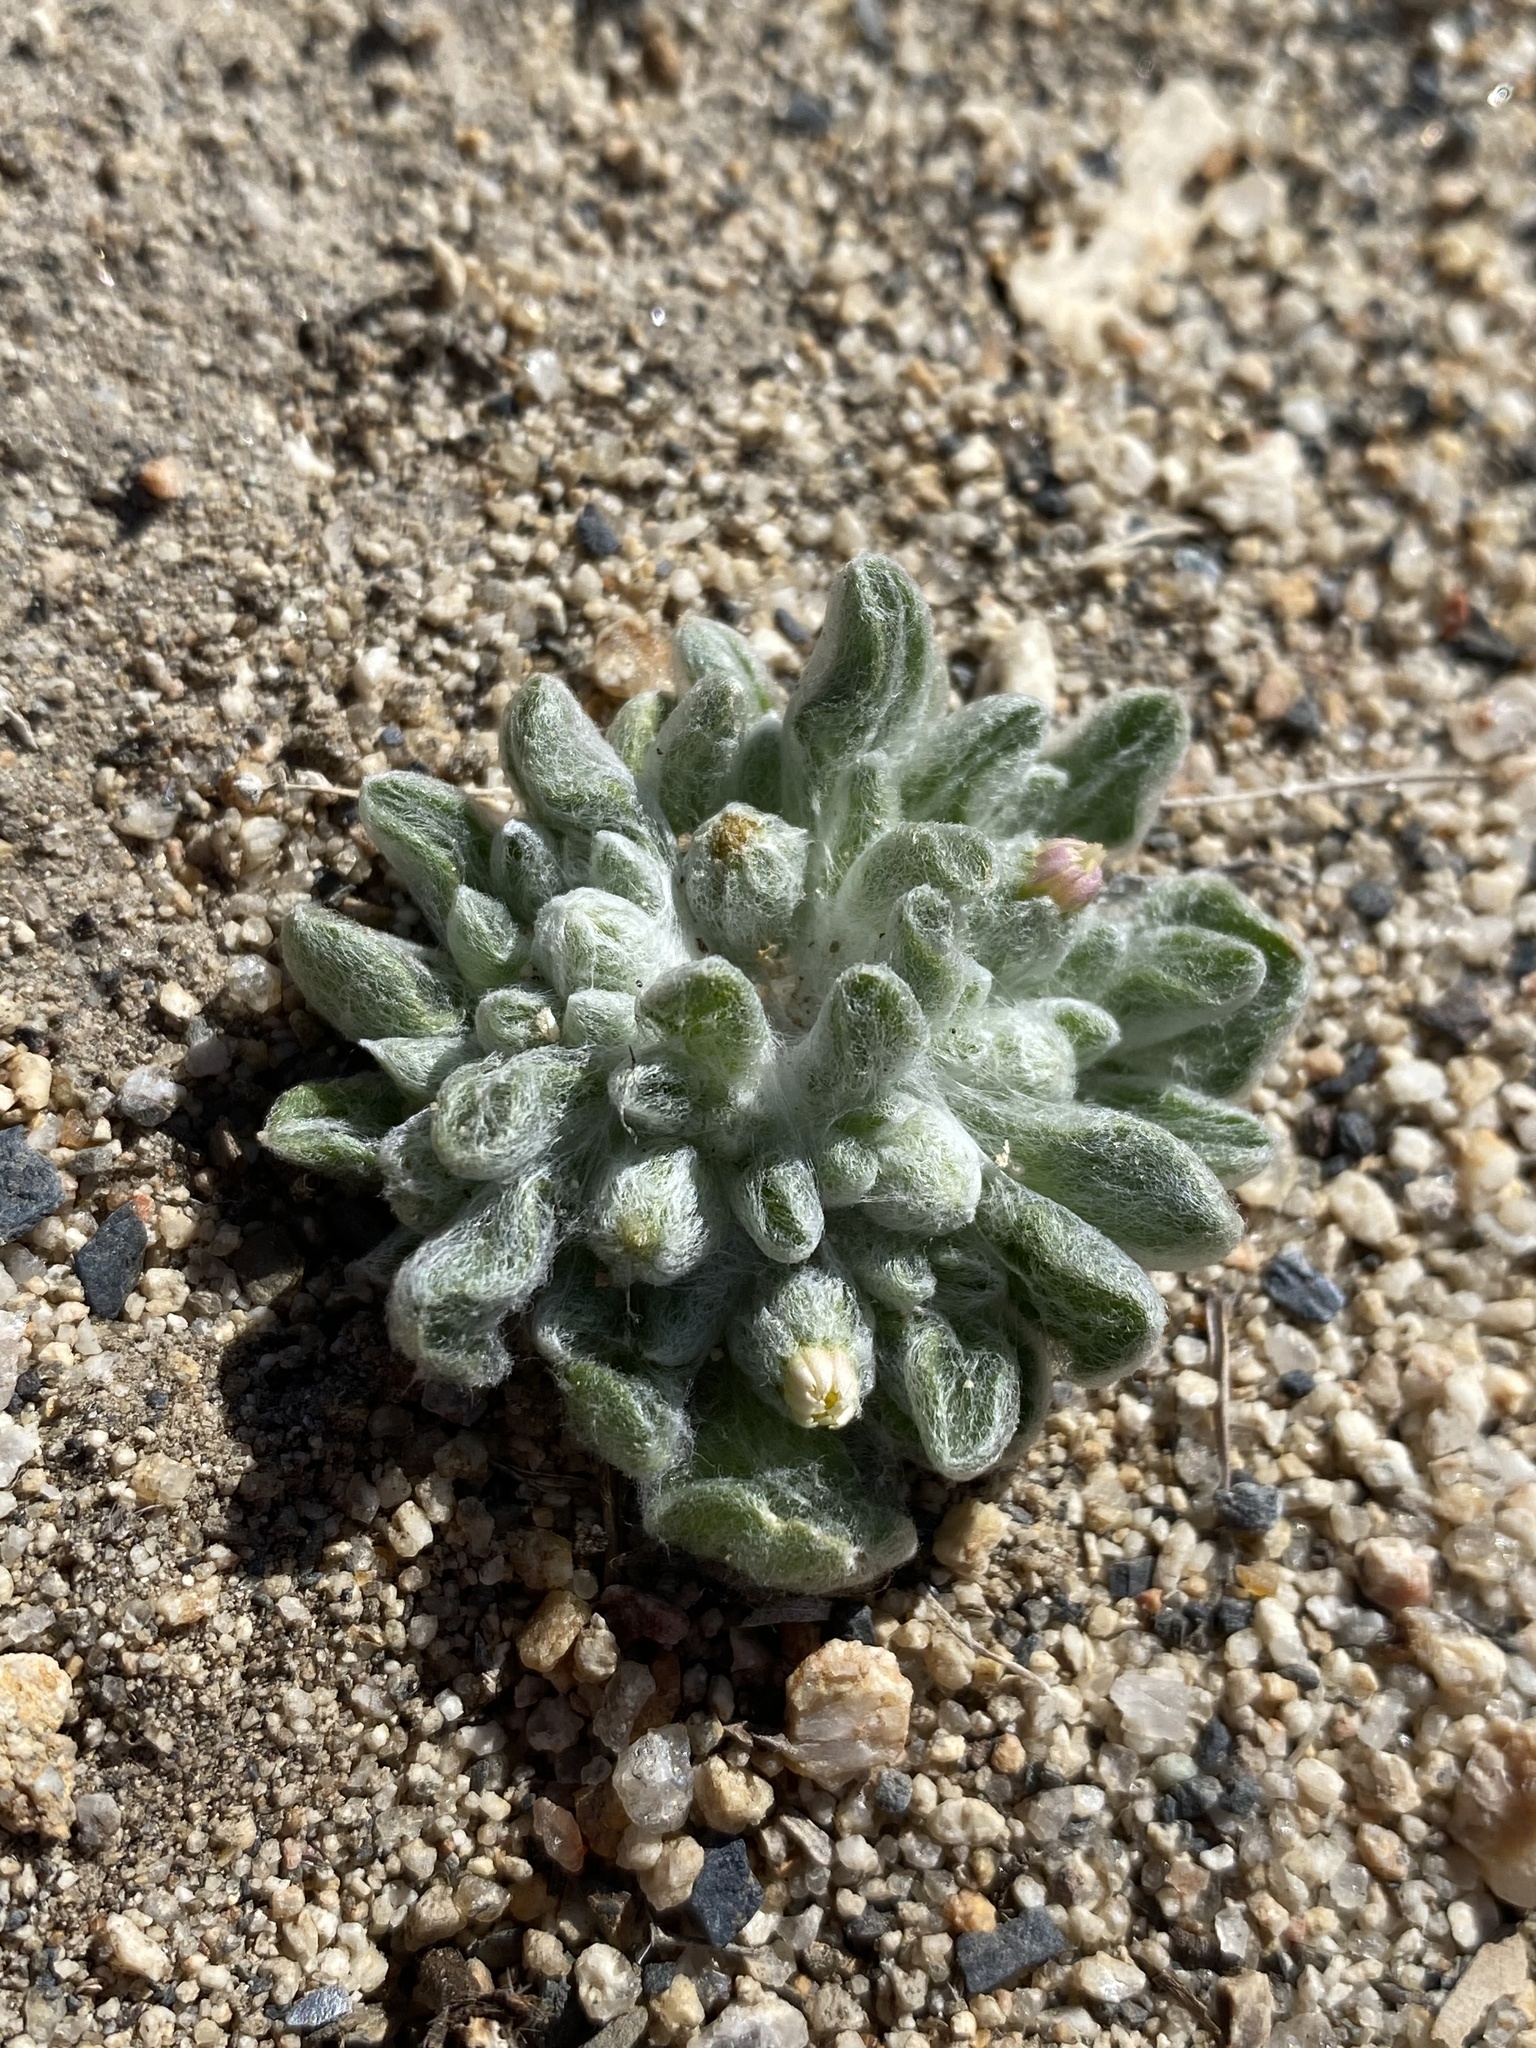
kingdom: Plantae
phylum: Tracheophyta
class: Magnoliopsida
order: Asterales
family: Asteraceae
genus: Eatonella
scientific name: Eatonella nivea
